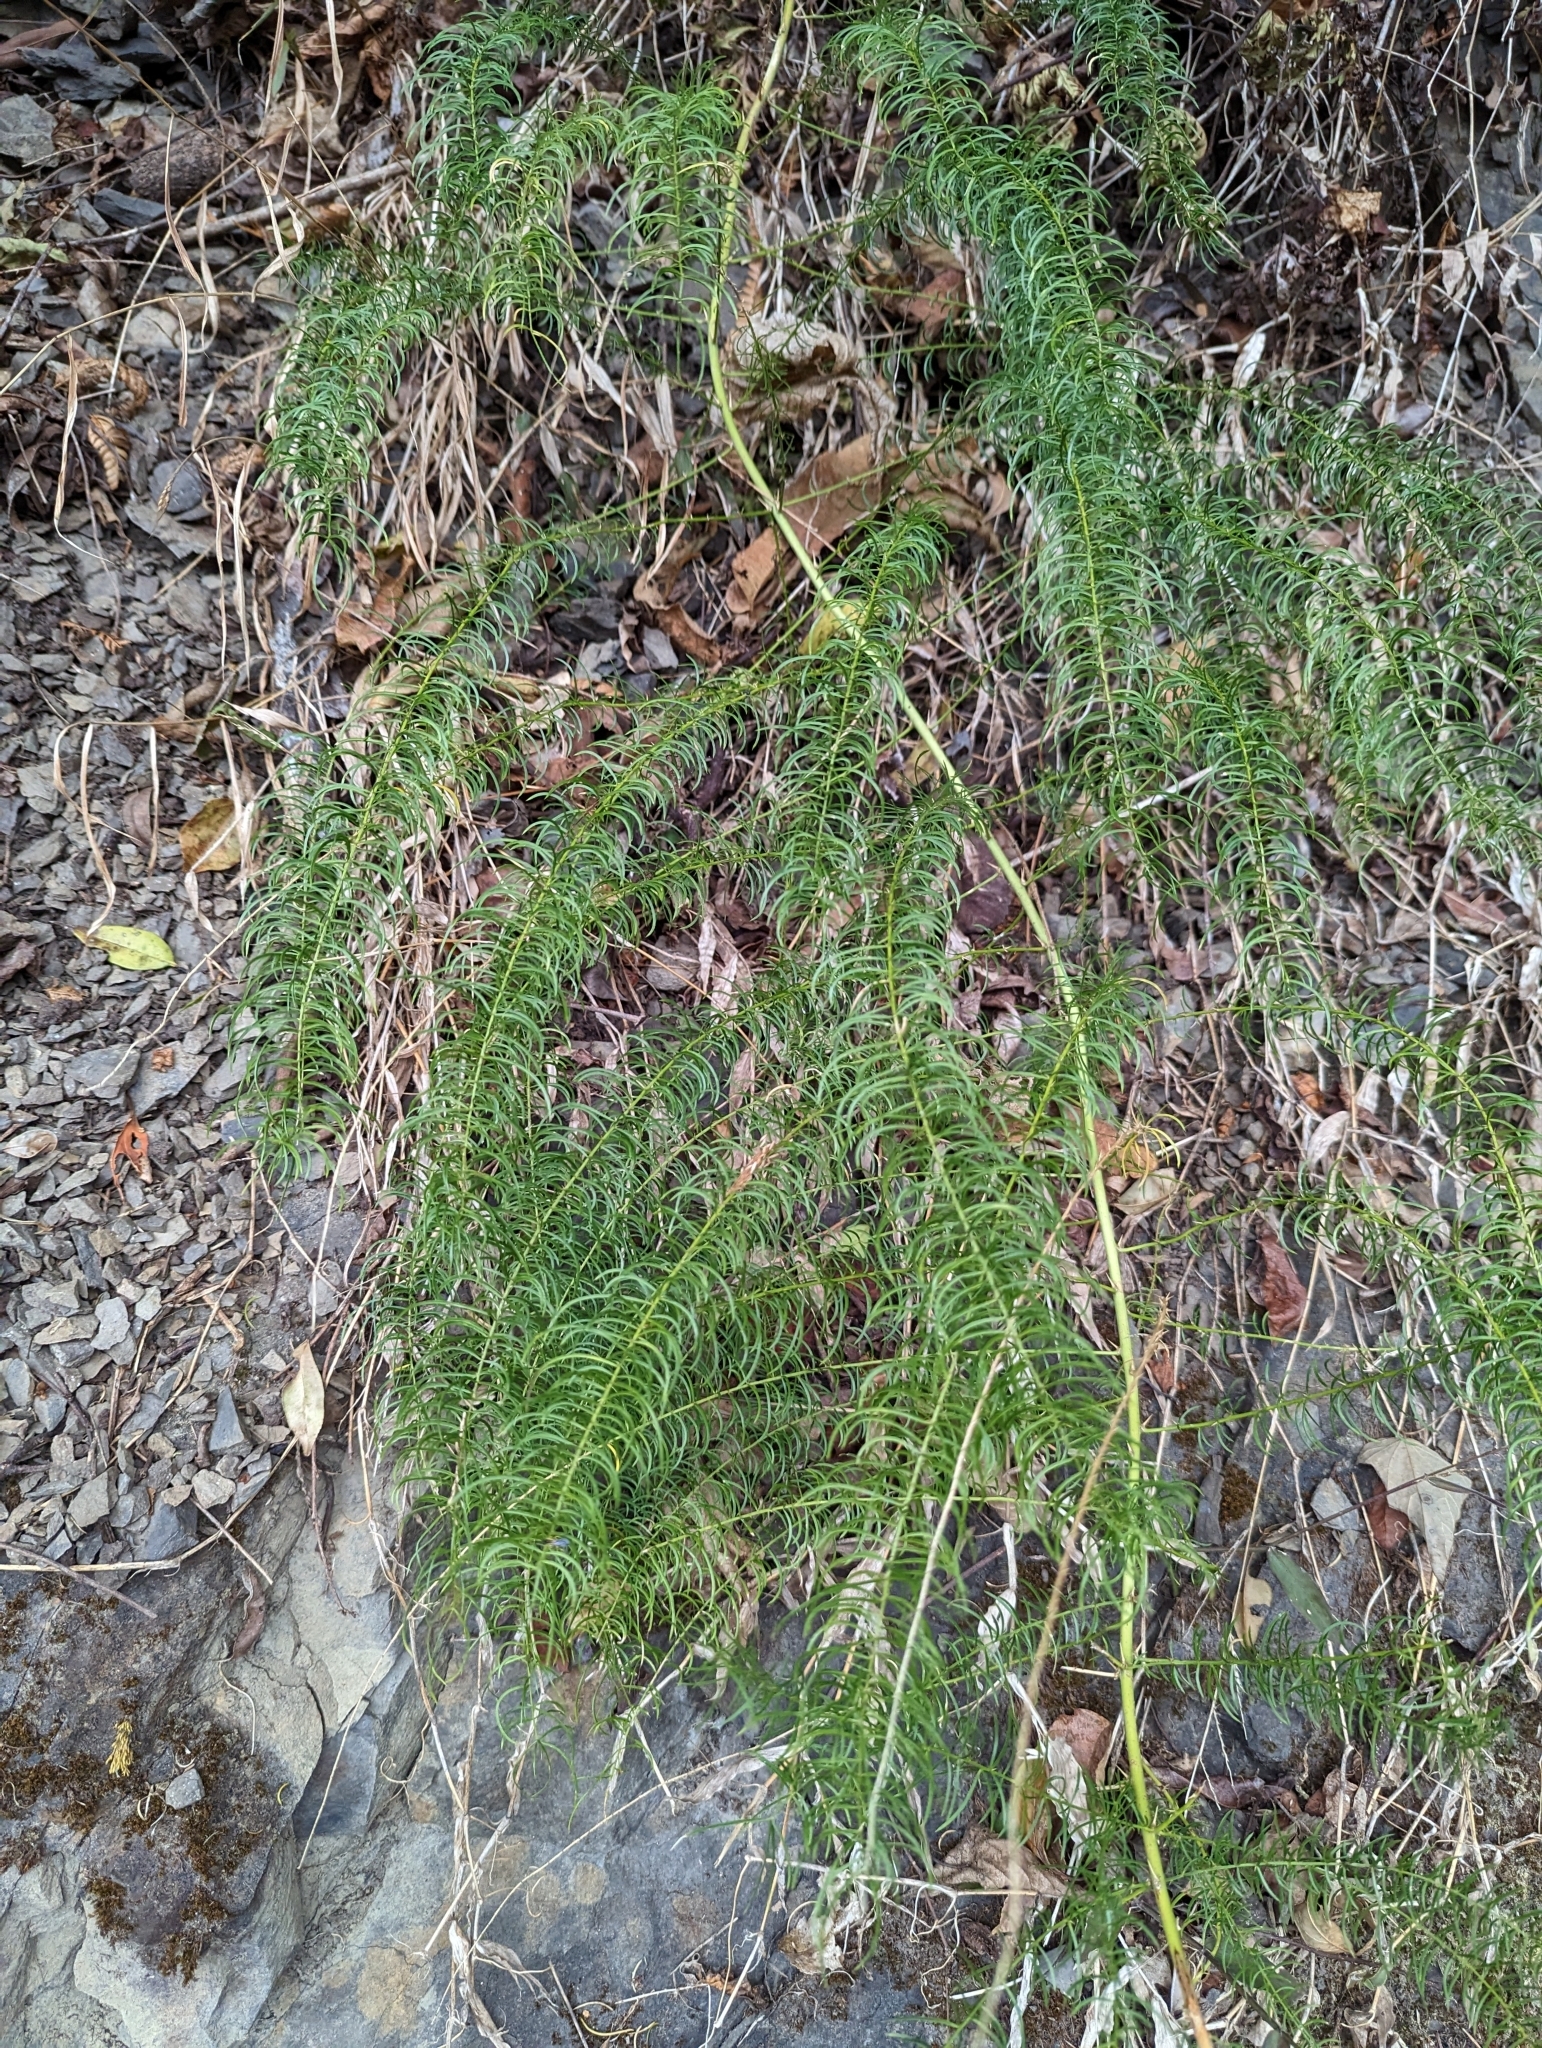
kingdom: Plantae
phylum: Tracheophyta
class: Liliopsida
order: Asparagales
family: Asparagaceae
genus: Asparagus
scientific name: Asparagus cochinchinensis
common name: Chinese asparagus
